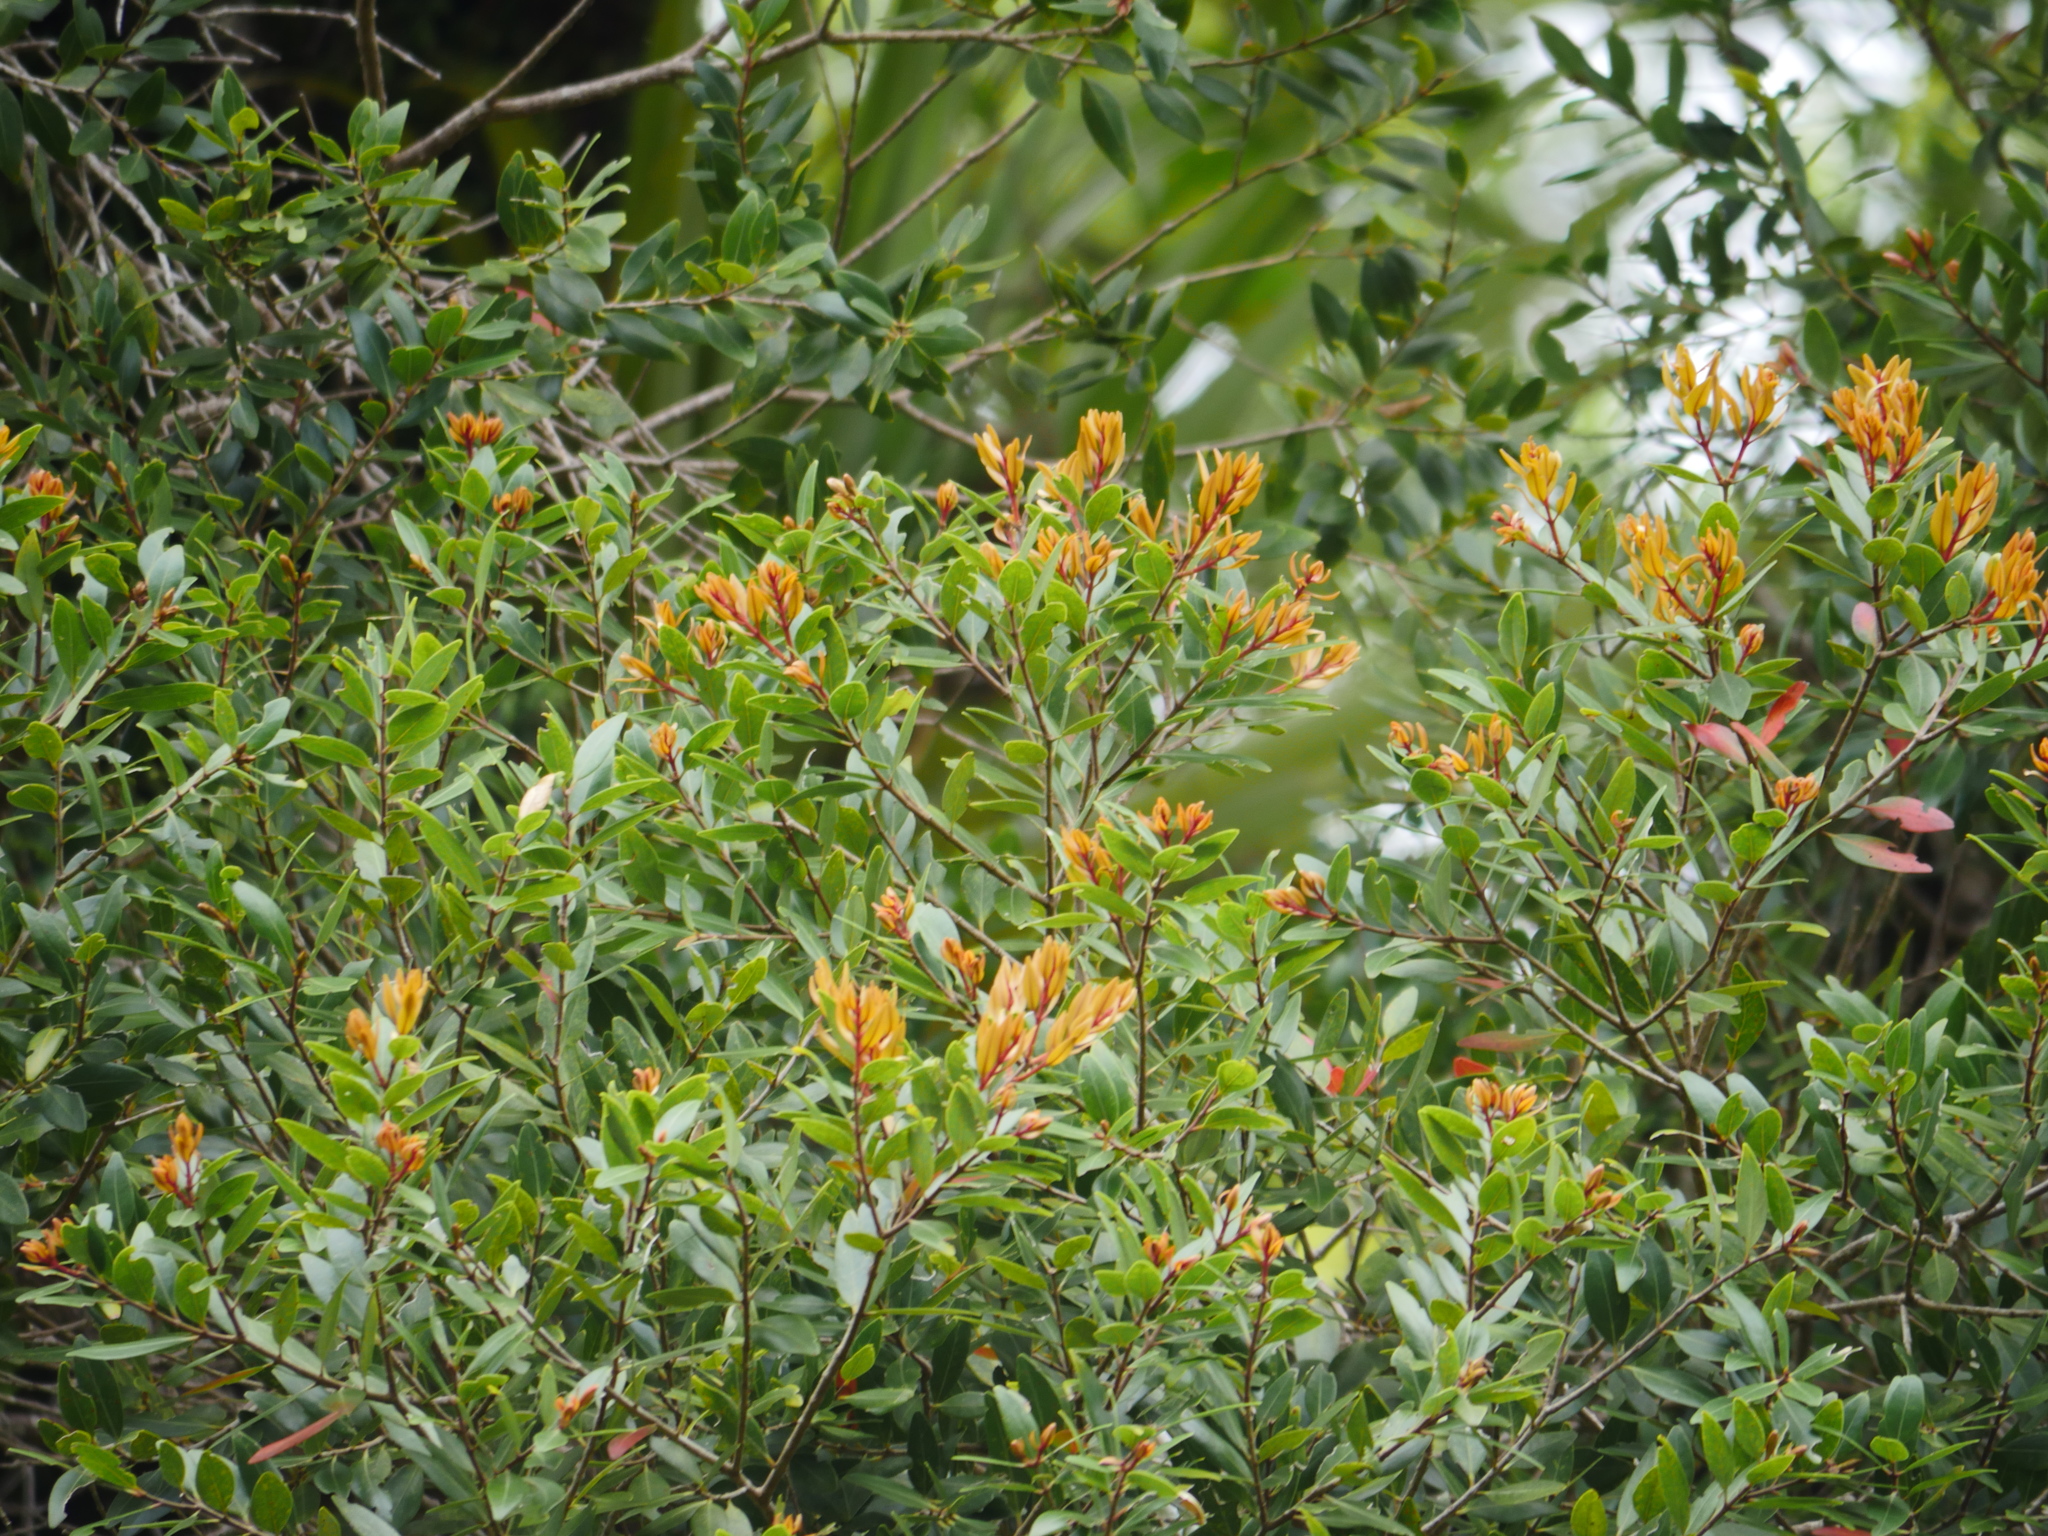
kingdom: Plantae
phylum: Tracheophyta
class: Magnoliopsida
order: Myrtales
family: Myrtaceae
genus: Metrosideros
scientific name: Metrosideros robusta
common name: Northern rata
